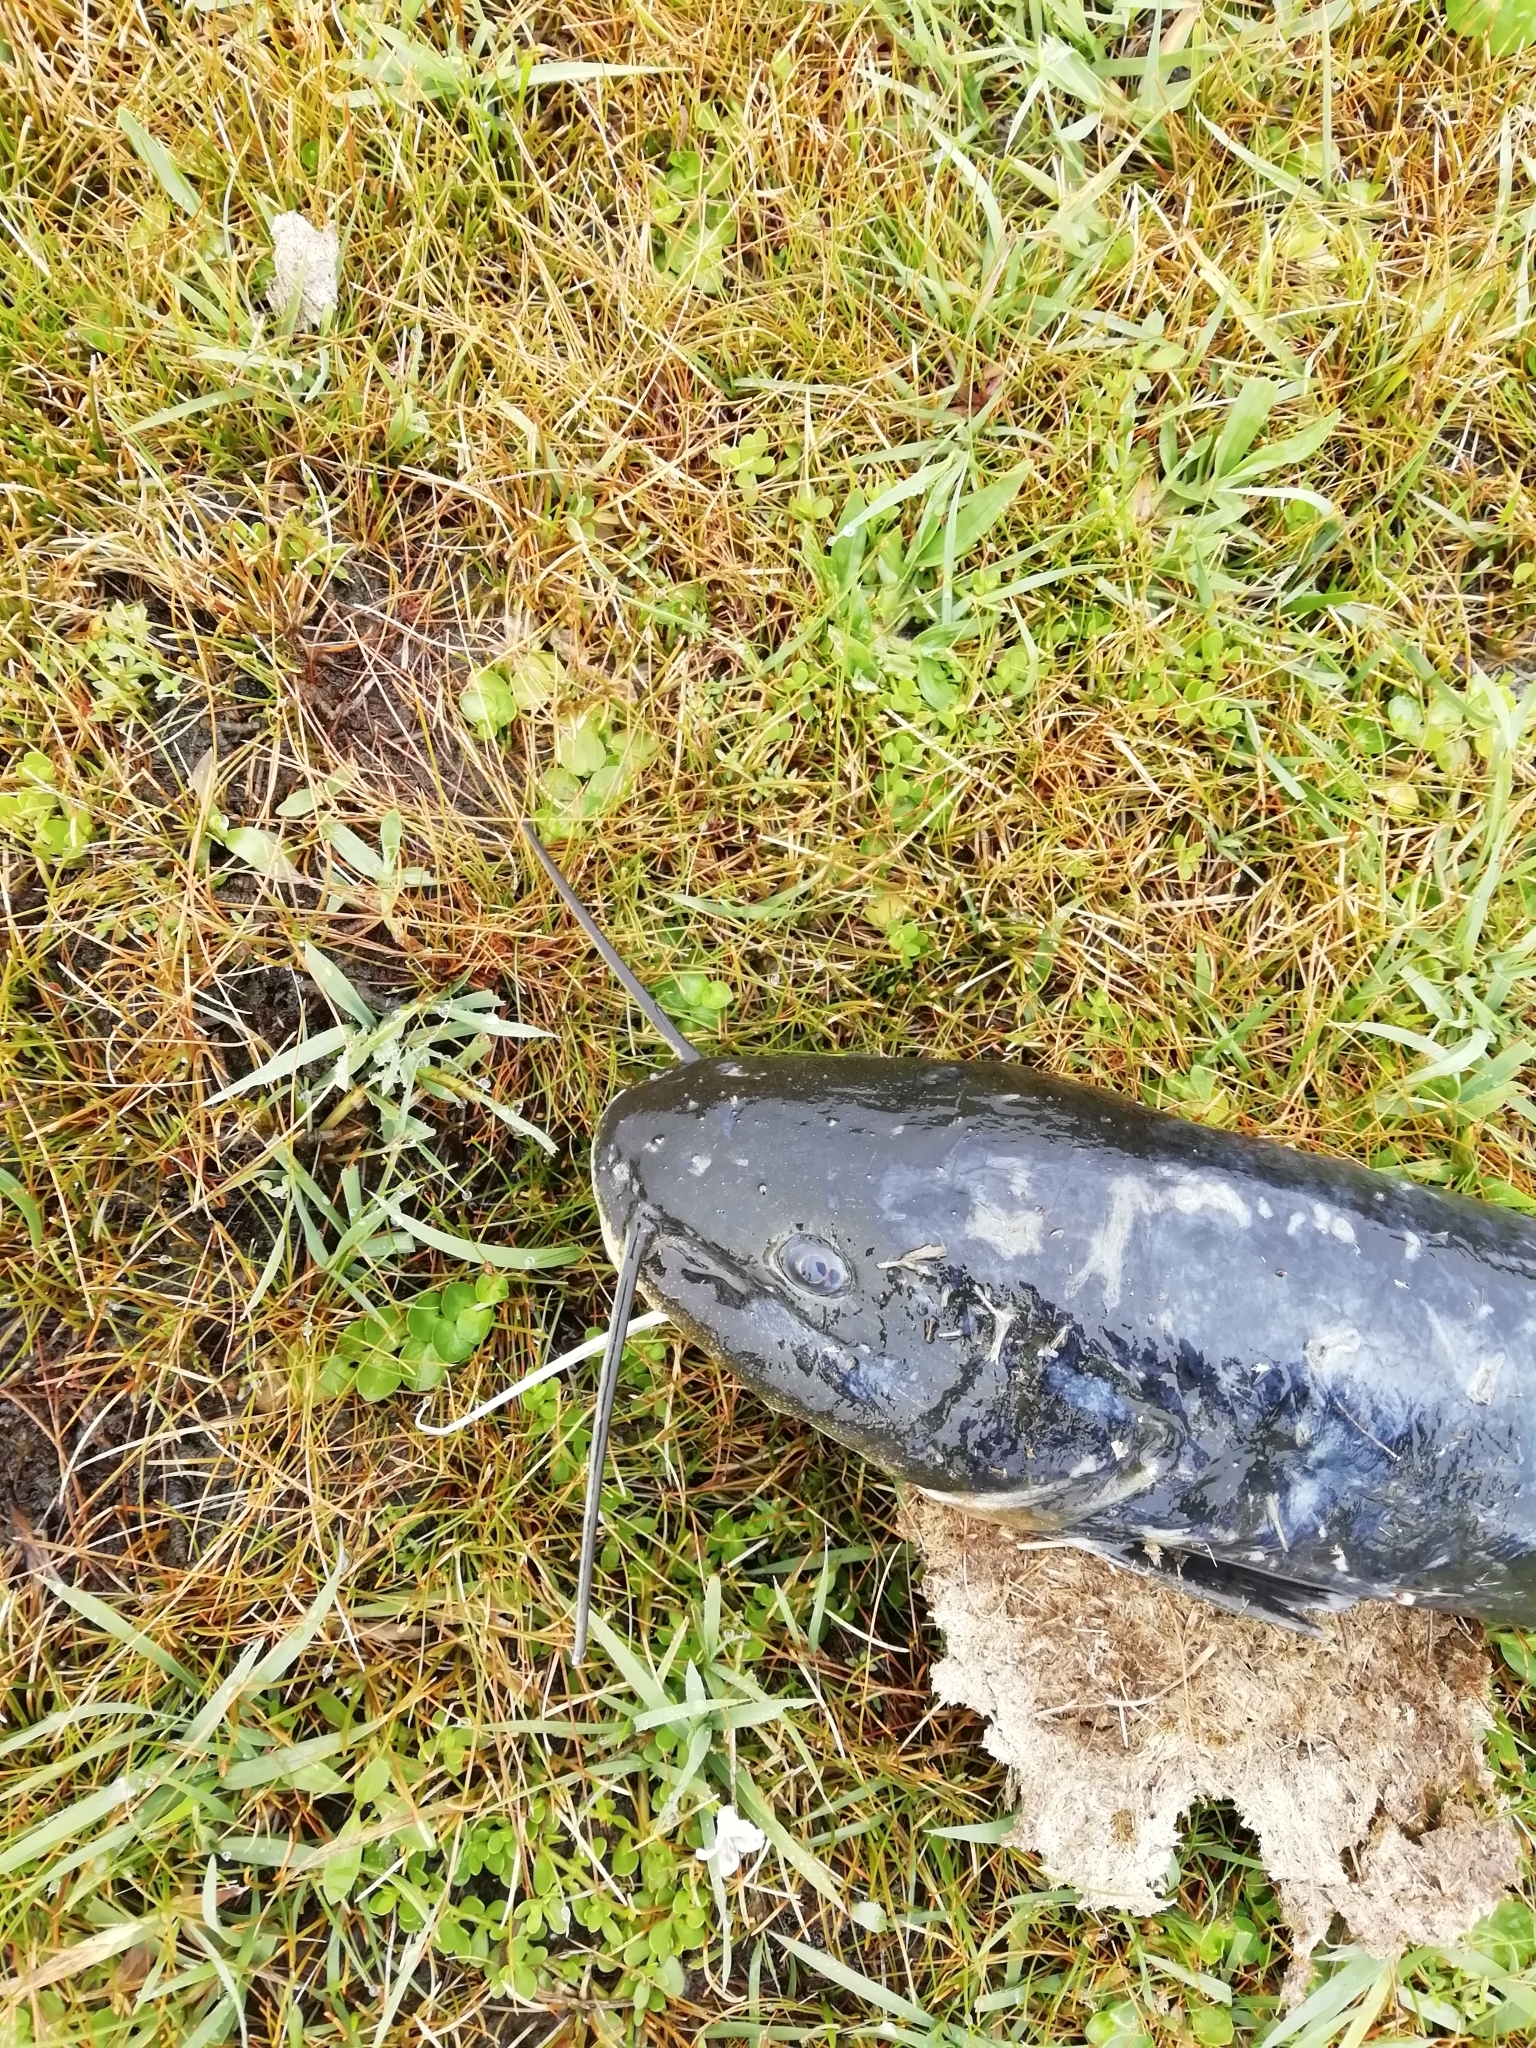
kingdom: Animalia
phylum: Chordata
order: Siluriformes
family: Heptapteridae
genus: Rhamdia
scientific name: Rhamdia quelen
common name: Catfish
